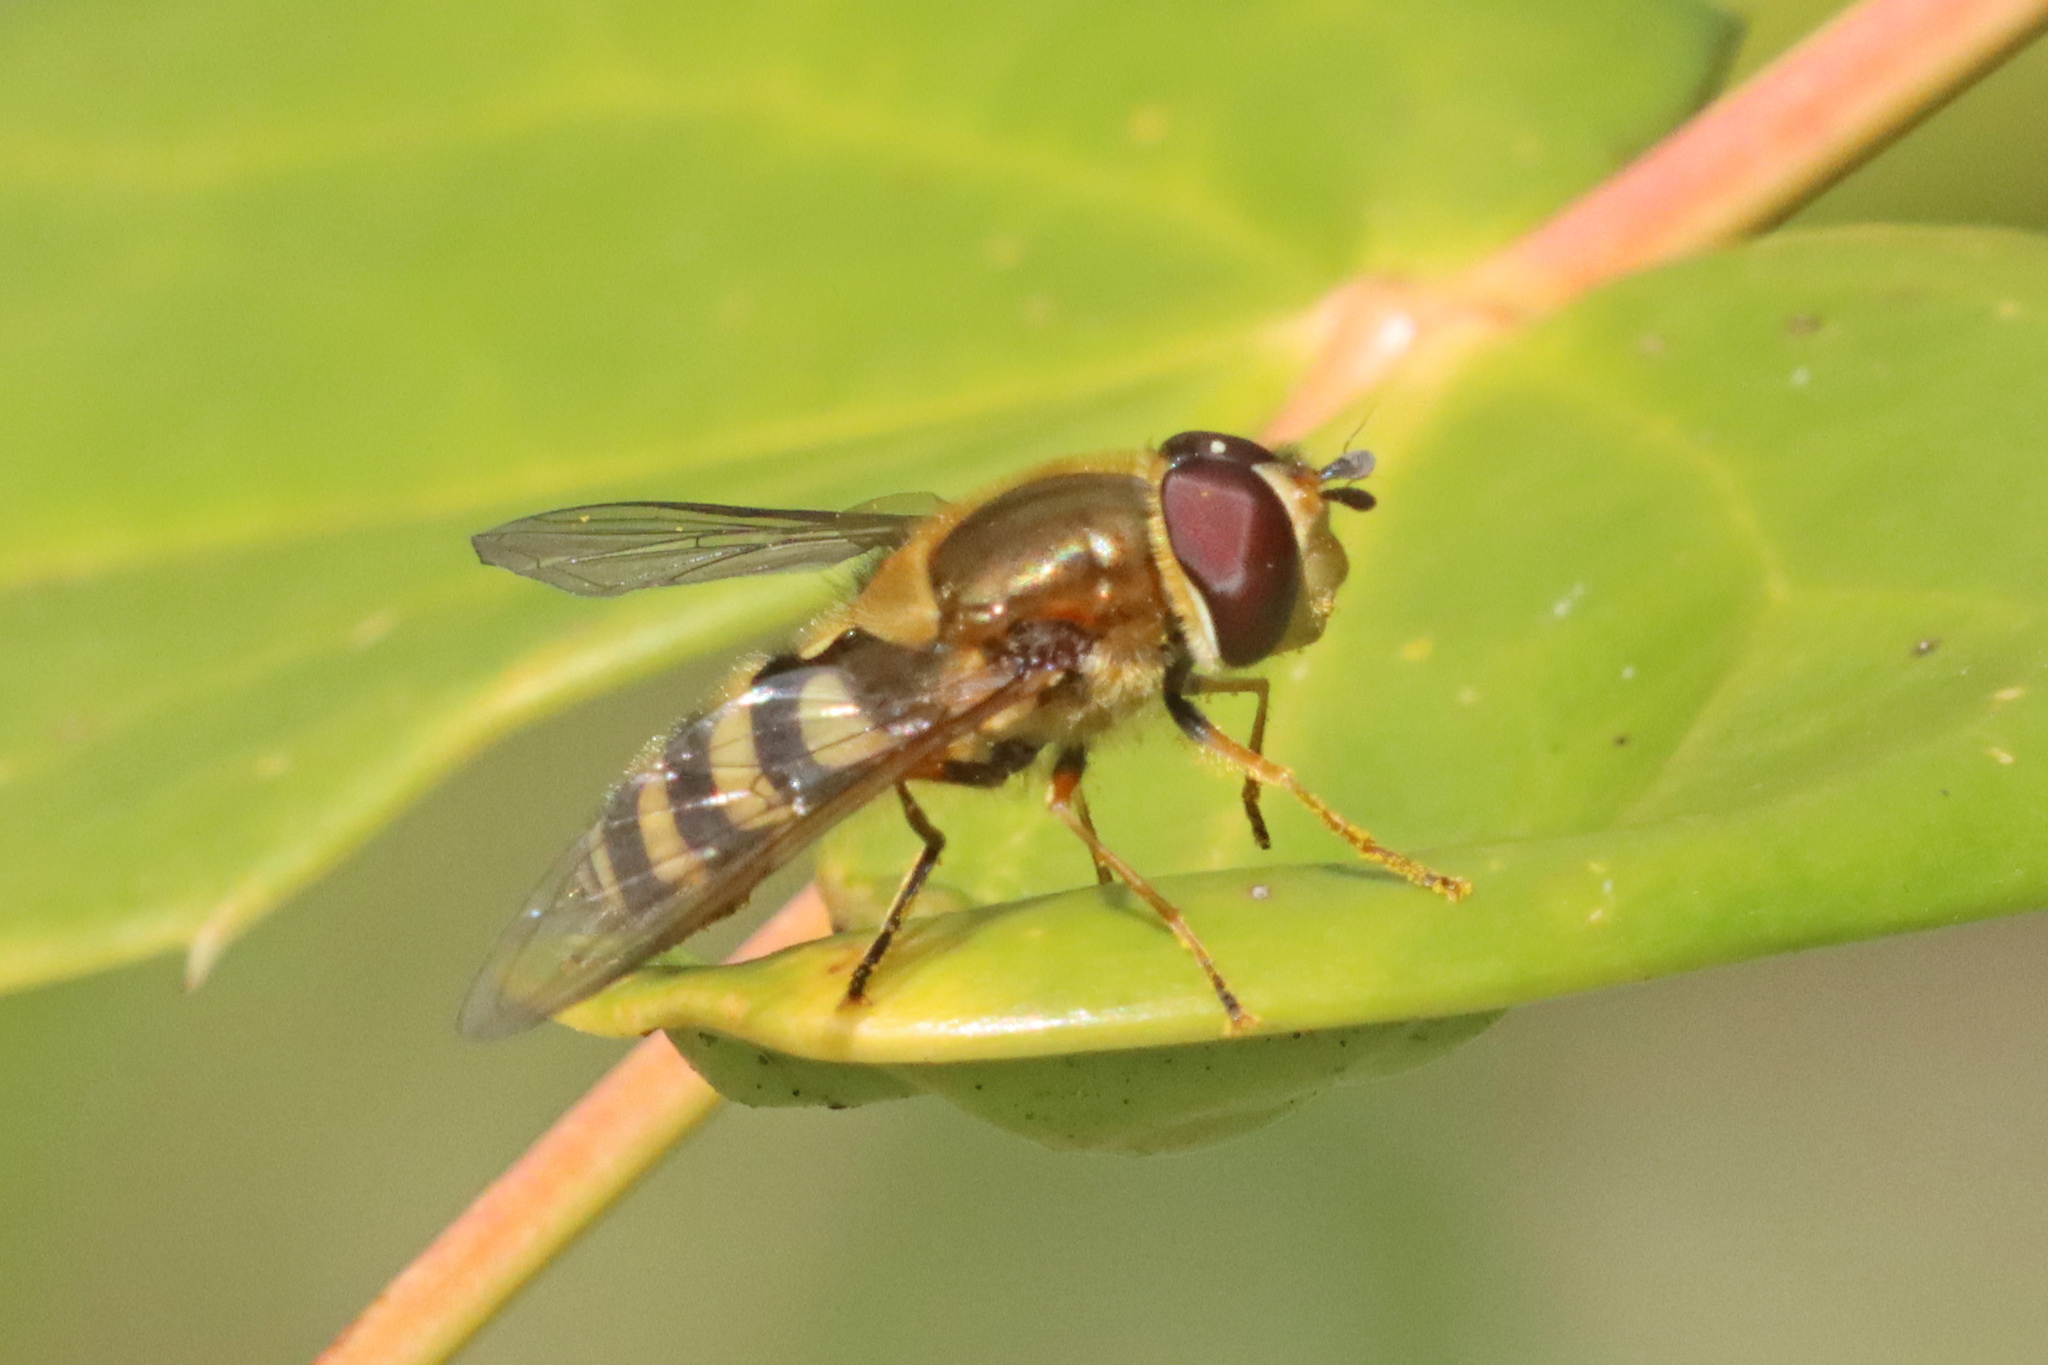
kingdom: Animalia
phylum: Arthropoda
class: Insecta
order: Diptera
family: Syrphidae
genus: Syrphus
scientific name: Syrphus
